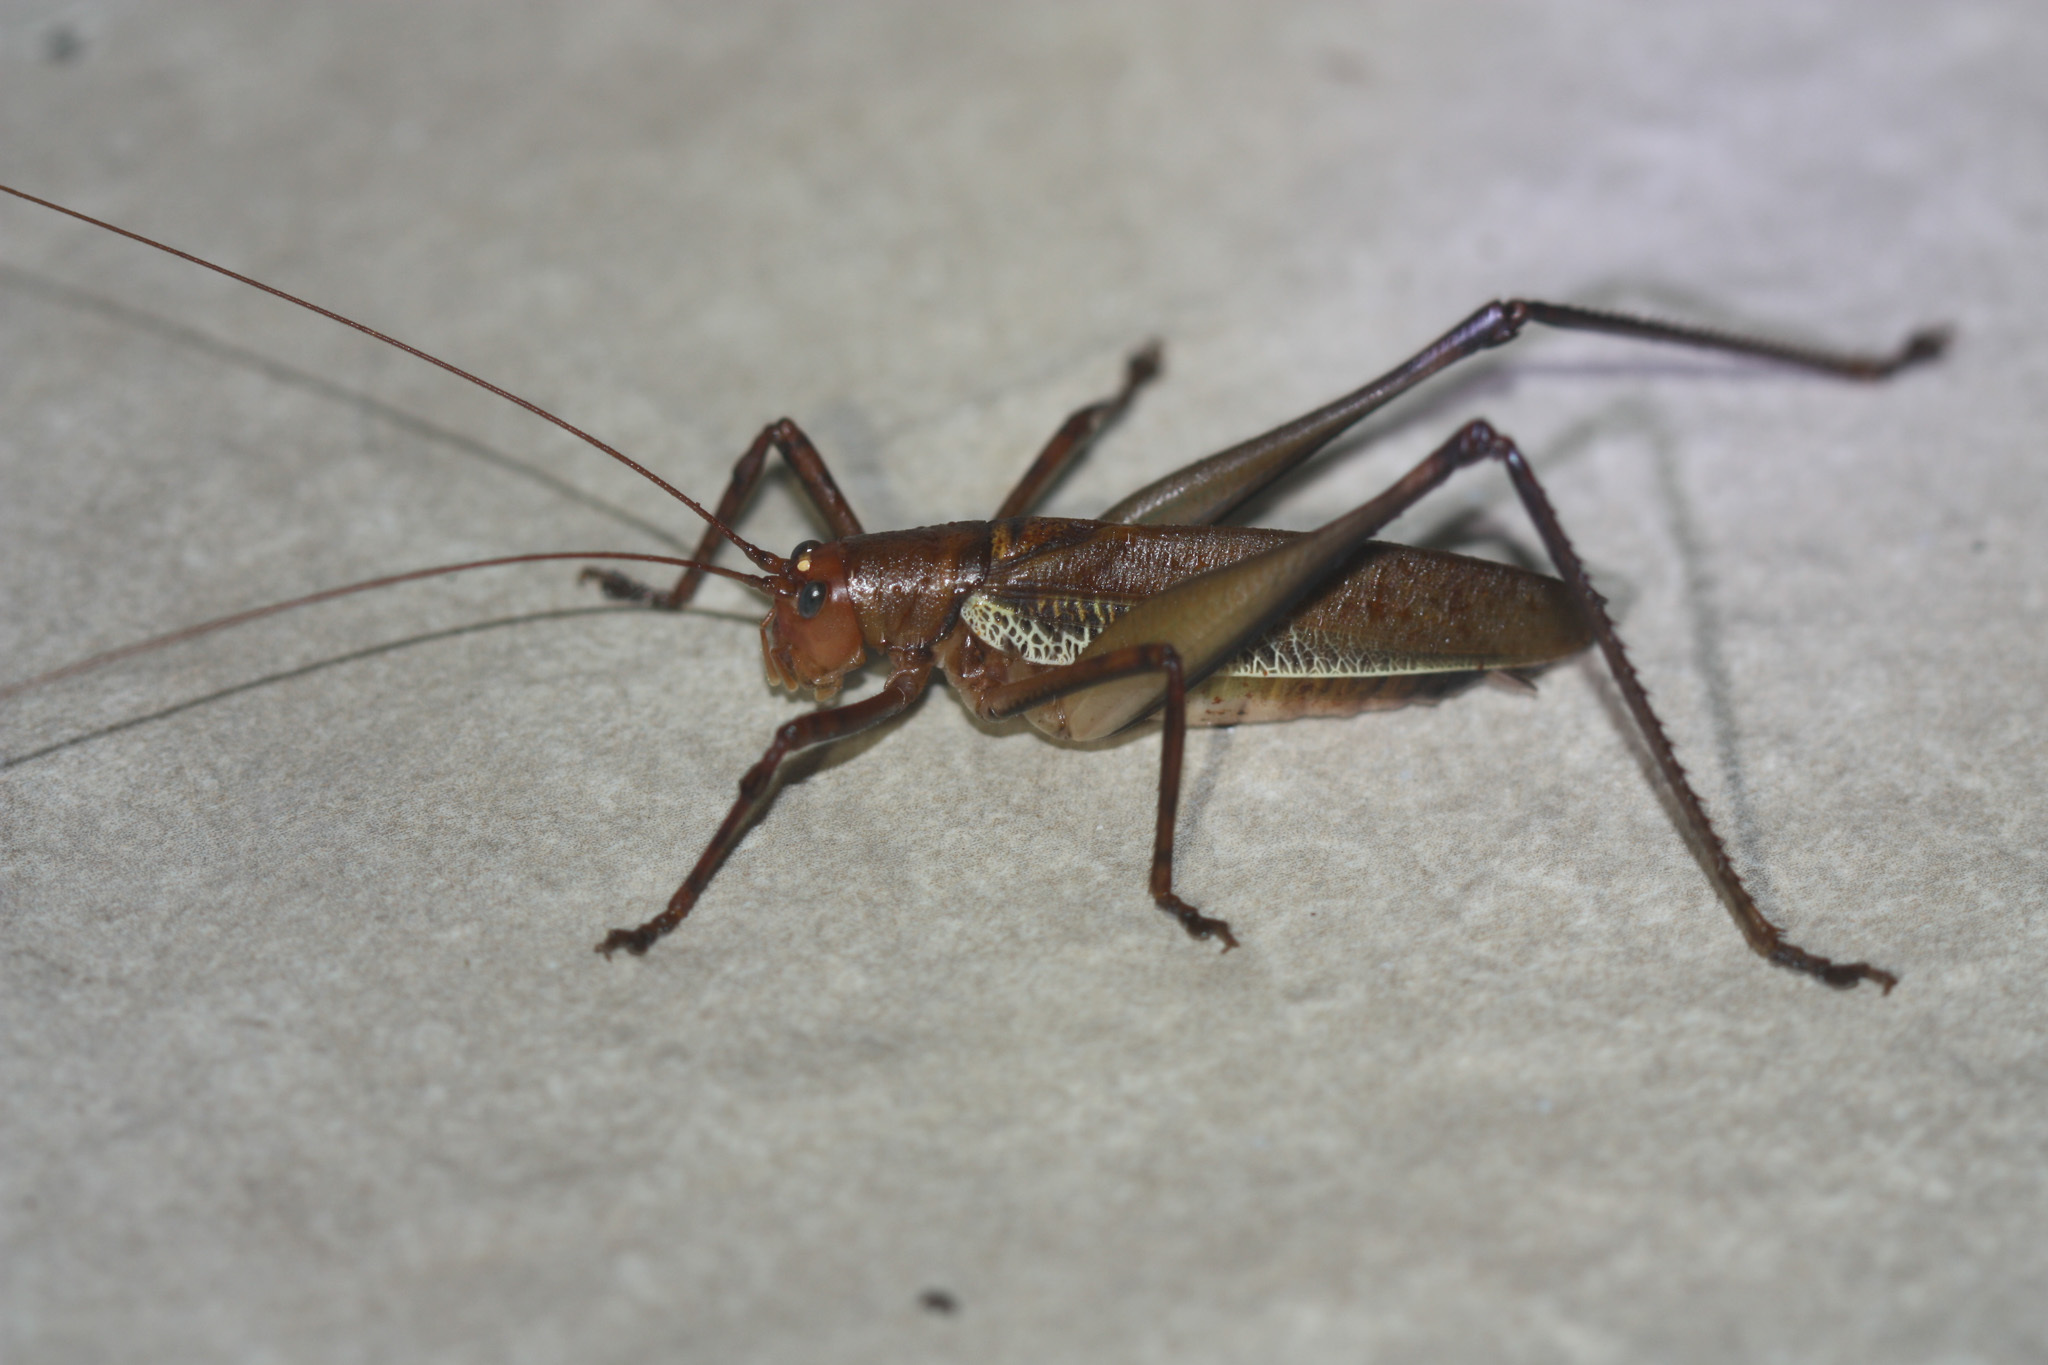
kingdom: Animalia
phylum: Arthropoda
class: Insecta
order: Orthoptera
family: Tettigoniidae
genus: Ischnomela
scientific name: Ischnomela pulchripennis
